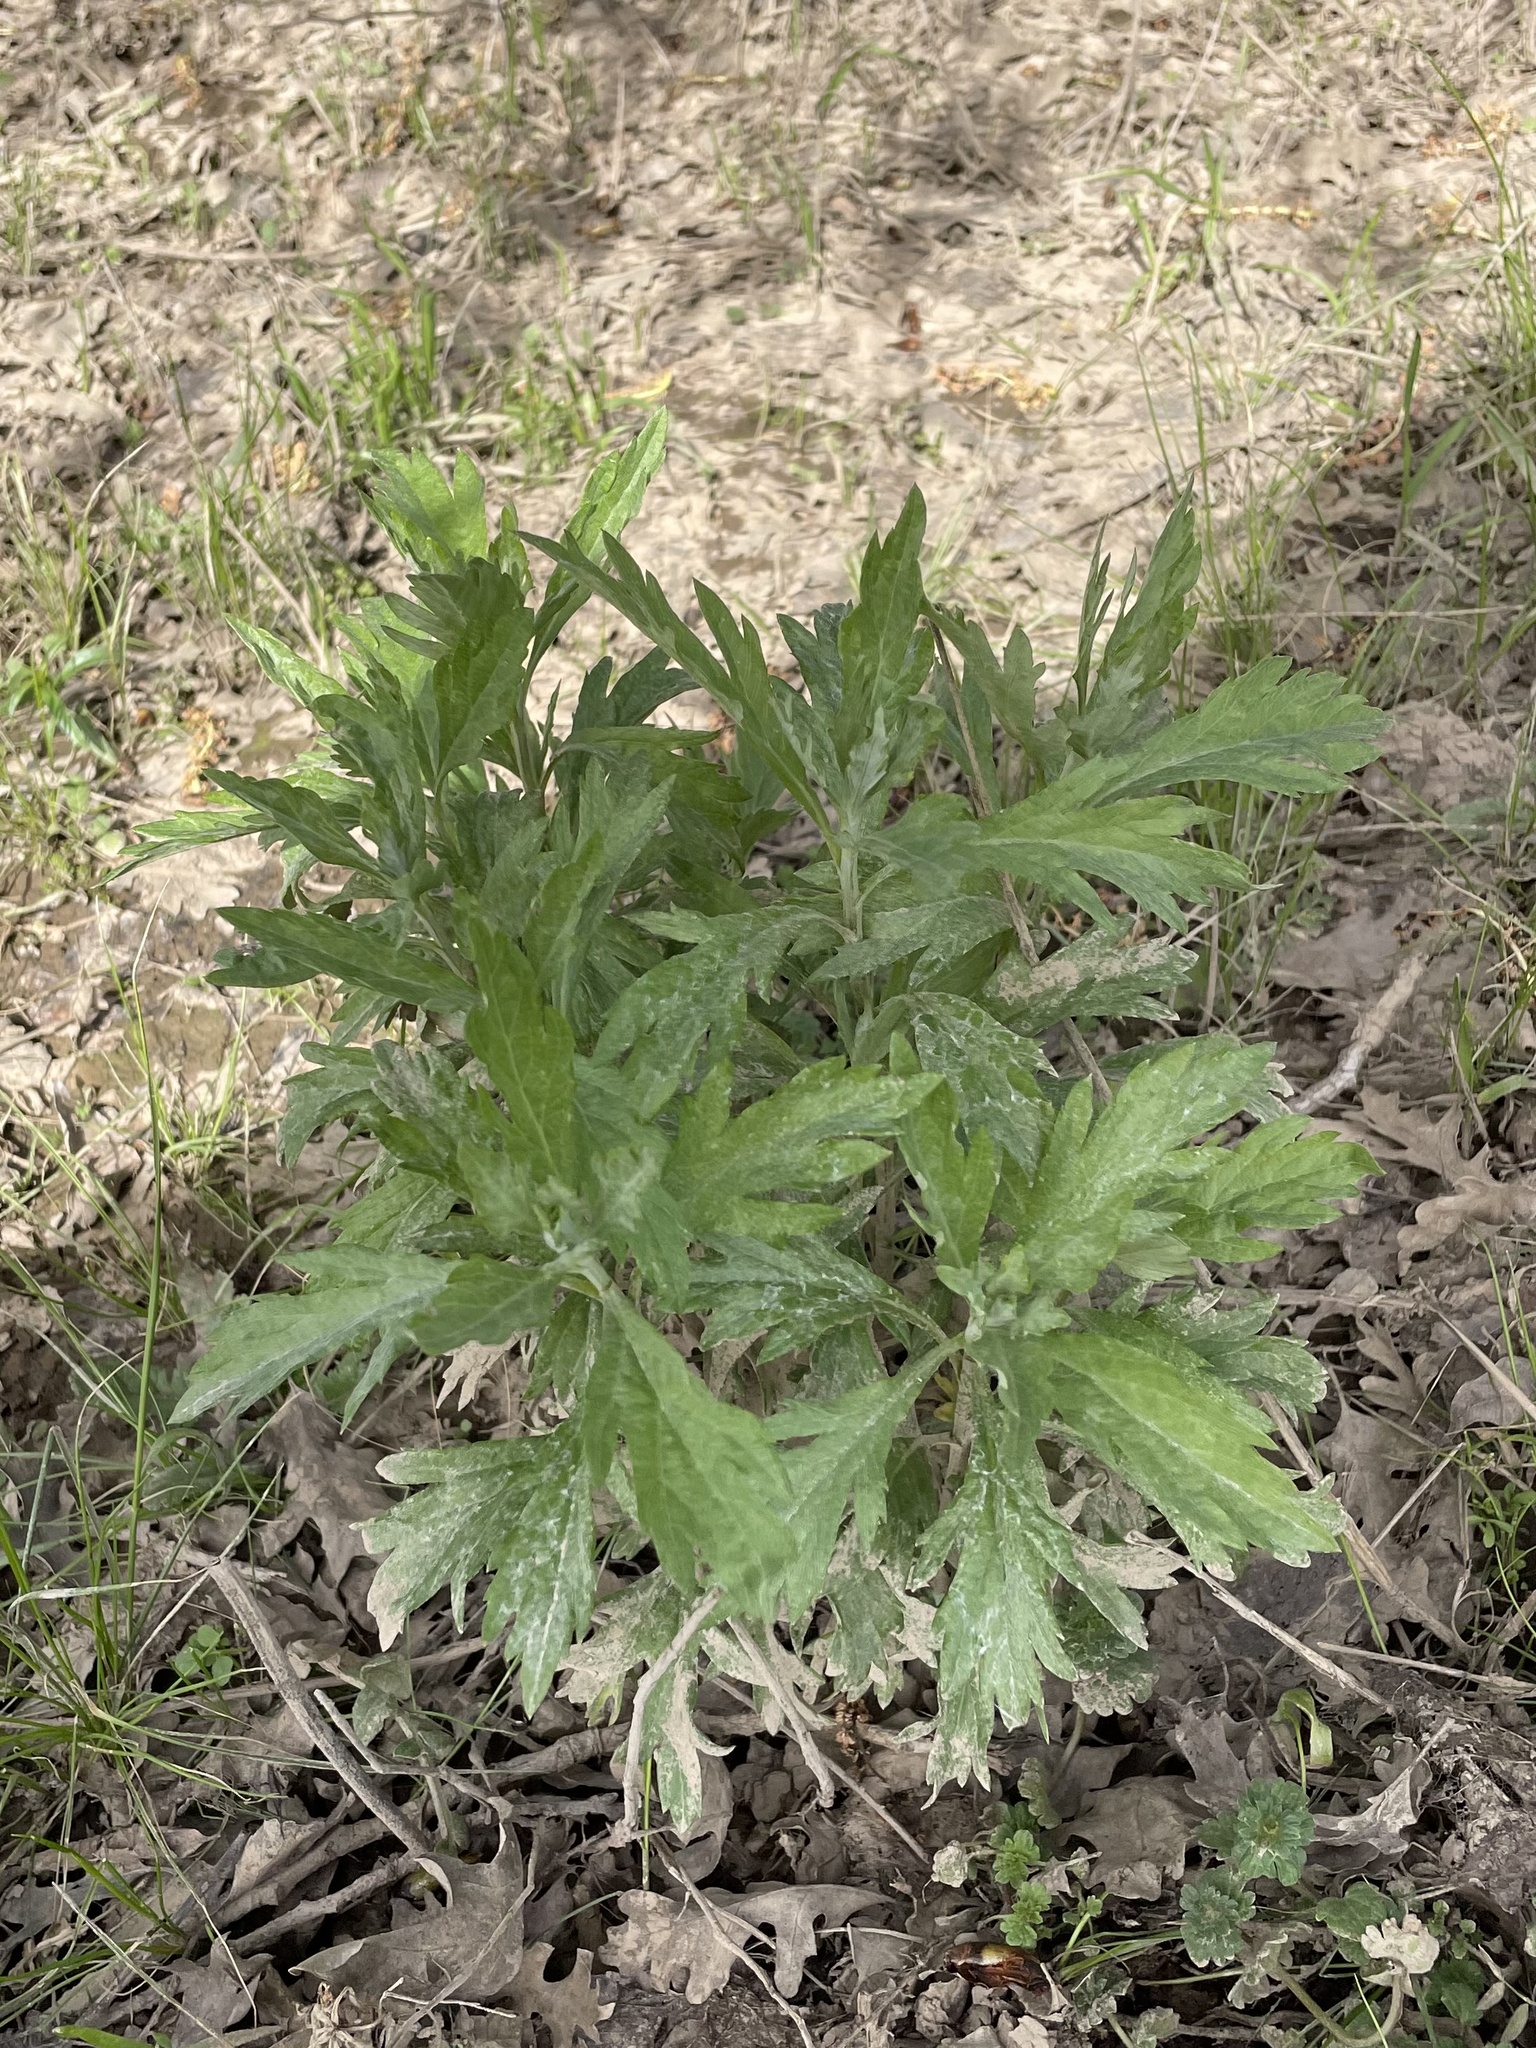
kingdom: Plantae
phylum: Tracheophyta
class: Magnoliopsida
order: Asterales
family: Asteraceae
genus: Artemisia
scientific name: Artemisia douglasiana
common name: Northwest mugwort
